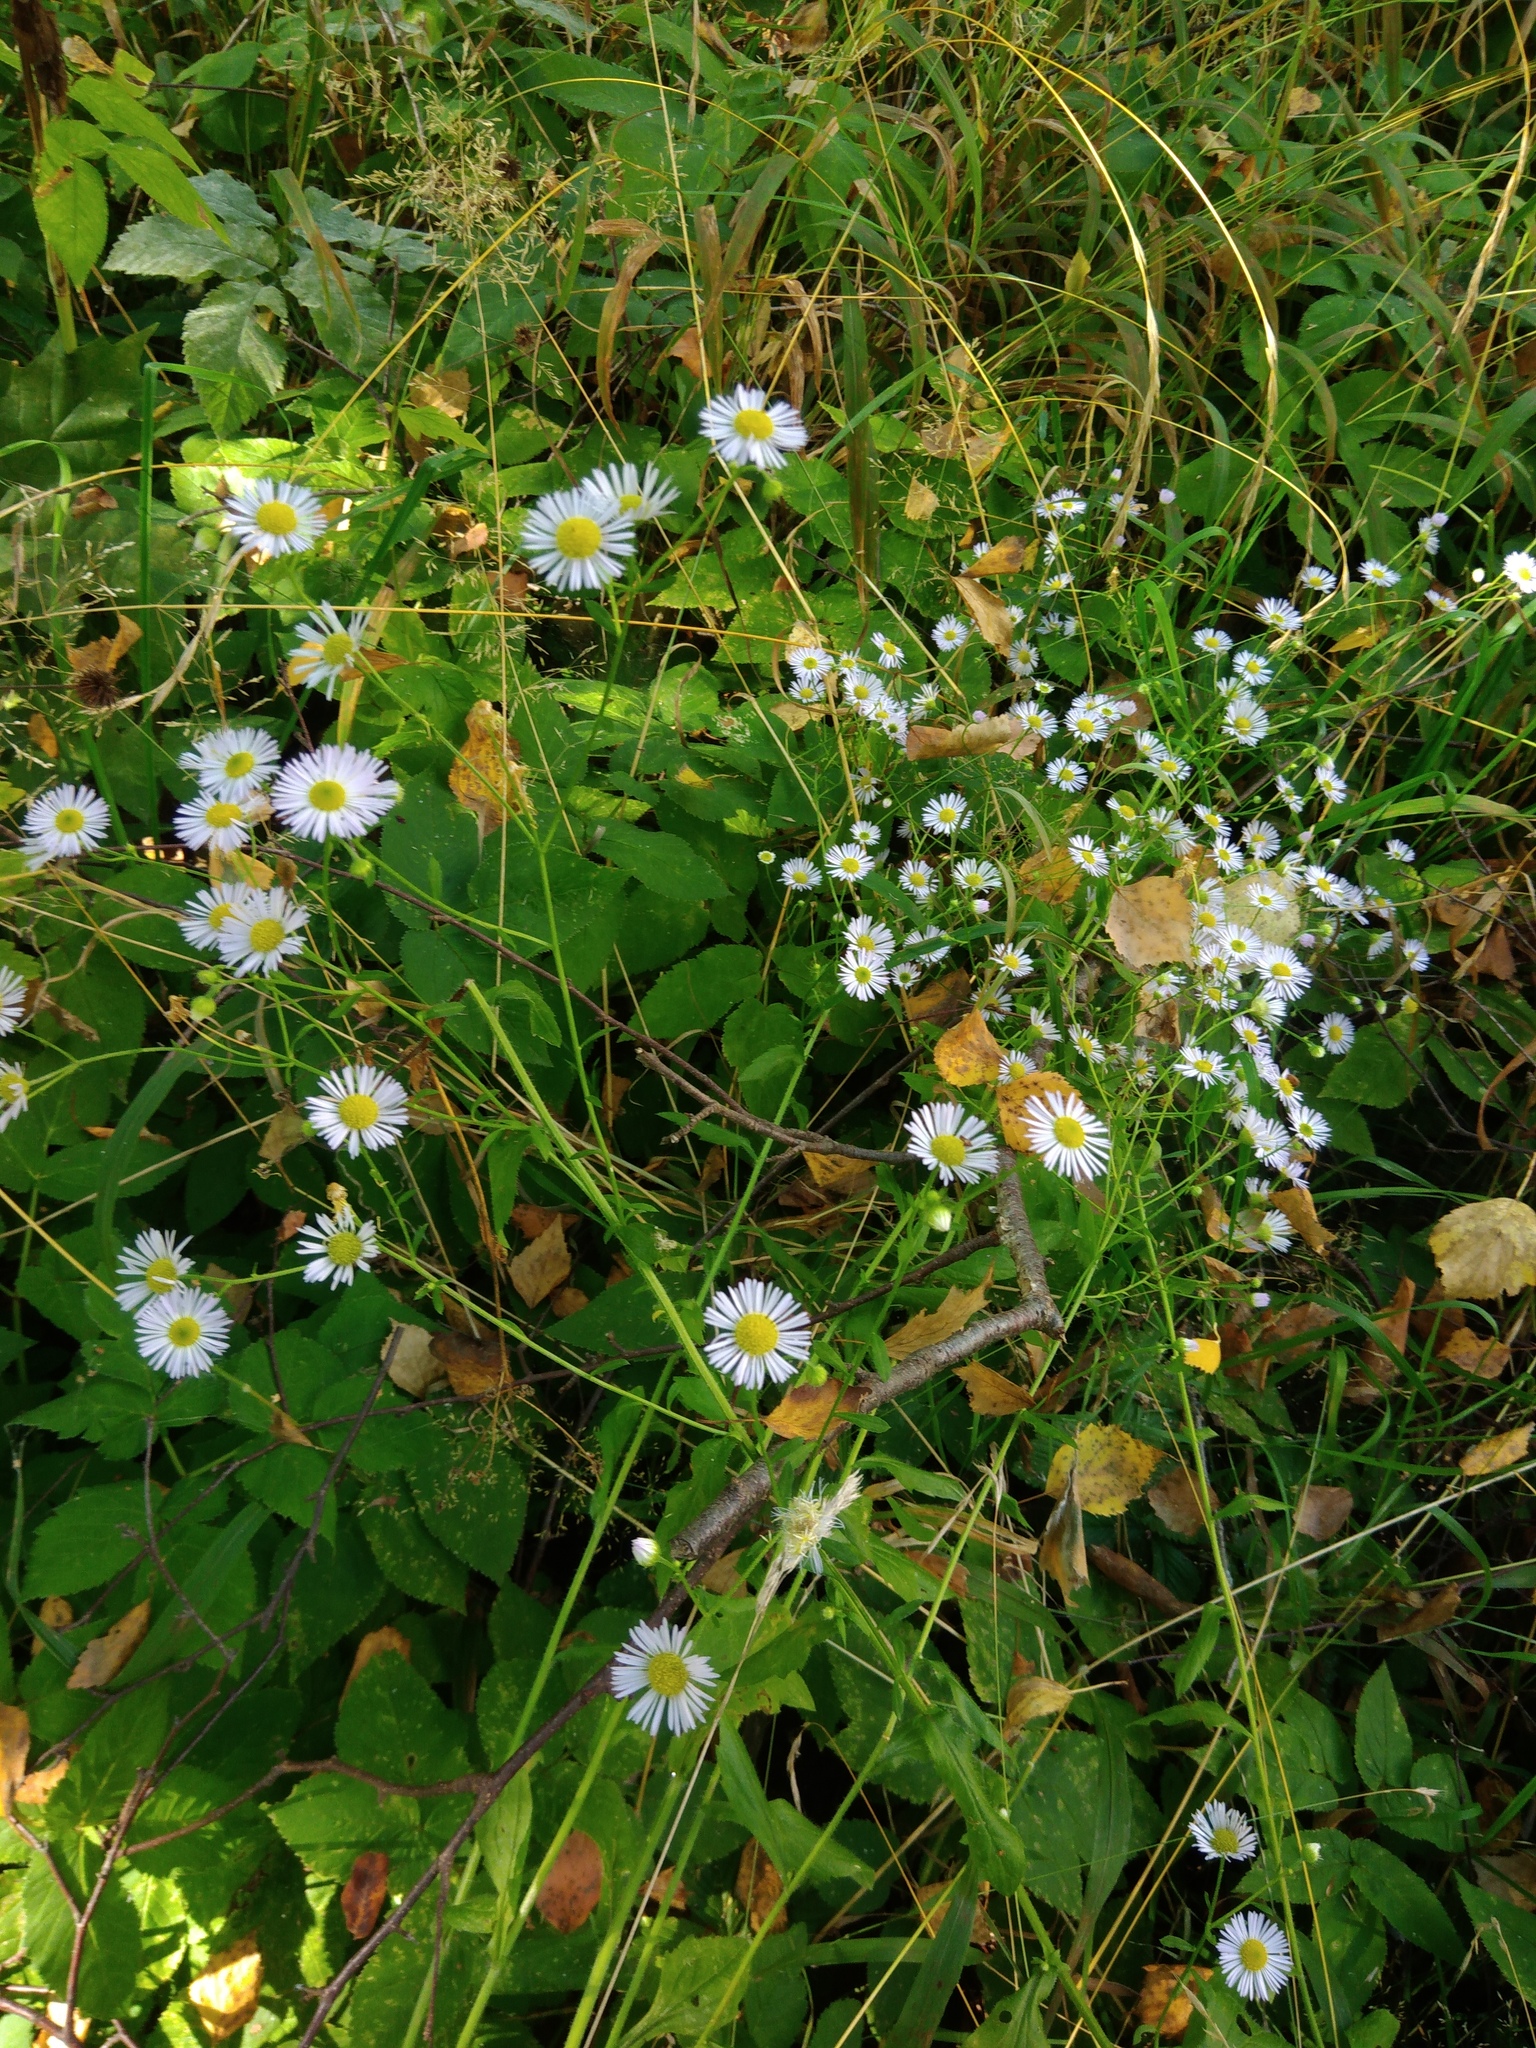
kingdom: Plantae
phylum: Tracheophyta
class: Magnoliopsida
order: Asterales
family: Asteraceae
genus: Erigeron
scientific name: Erigeron annuus
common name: Tall fleabane
